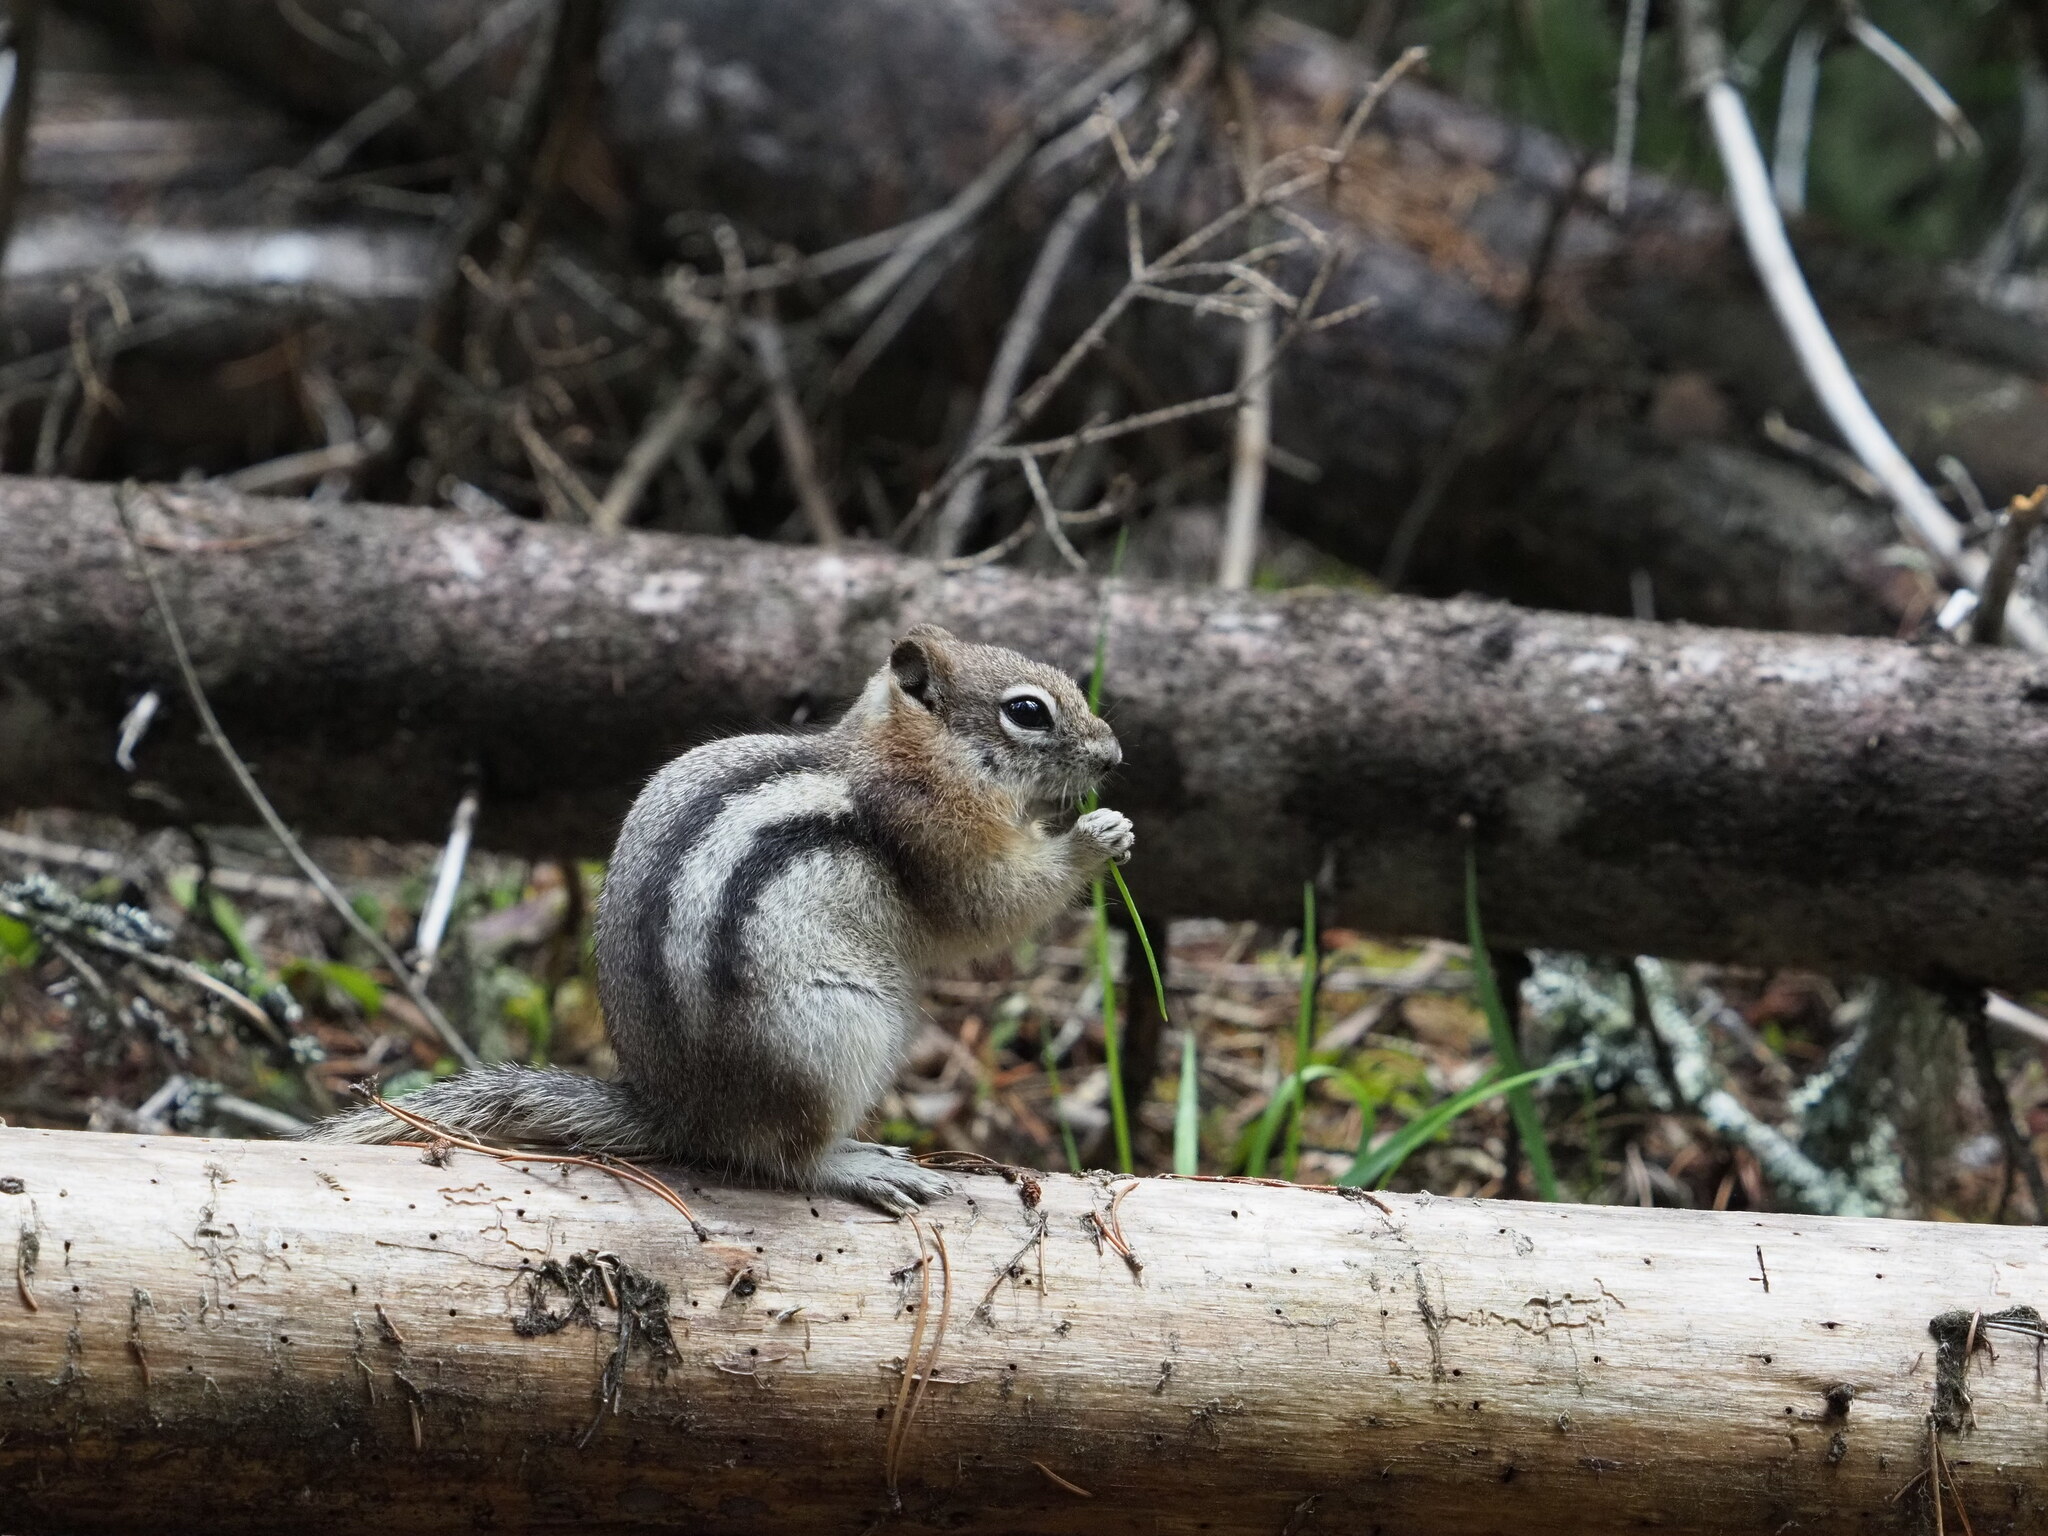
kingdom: Animalia
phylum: Chordata
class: Mammalia
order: Rodentia
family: Sciuridae
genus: Callospermophilus
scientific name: Callospermophilus lateralis
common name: Golden-mantled ground squirrel
